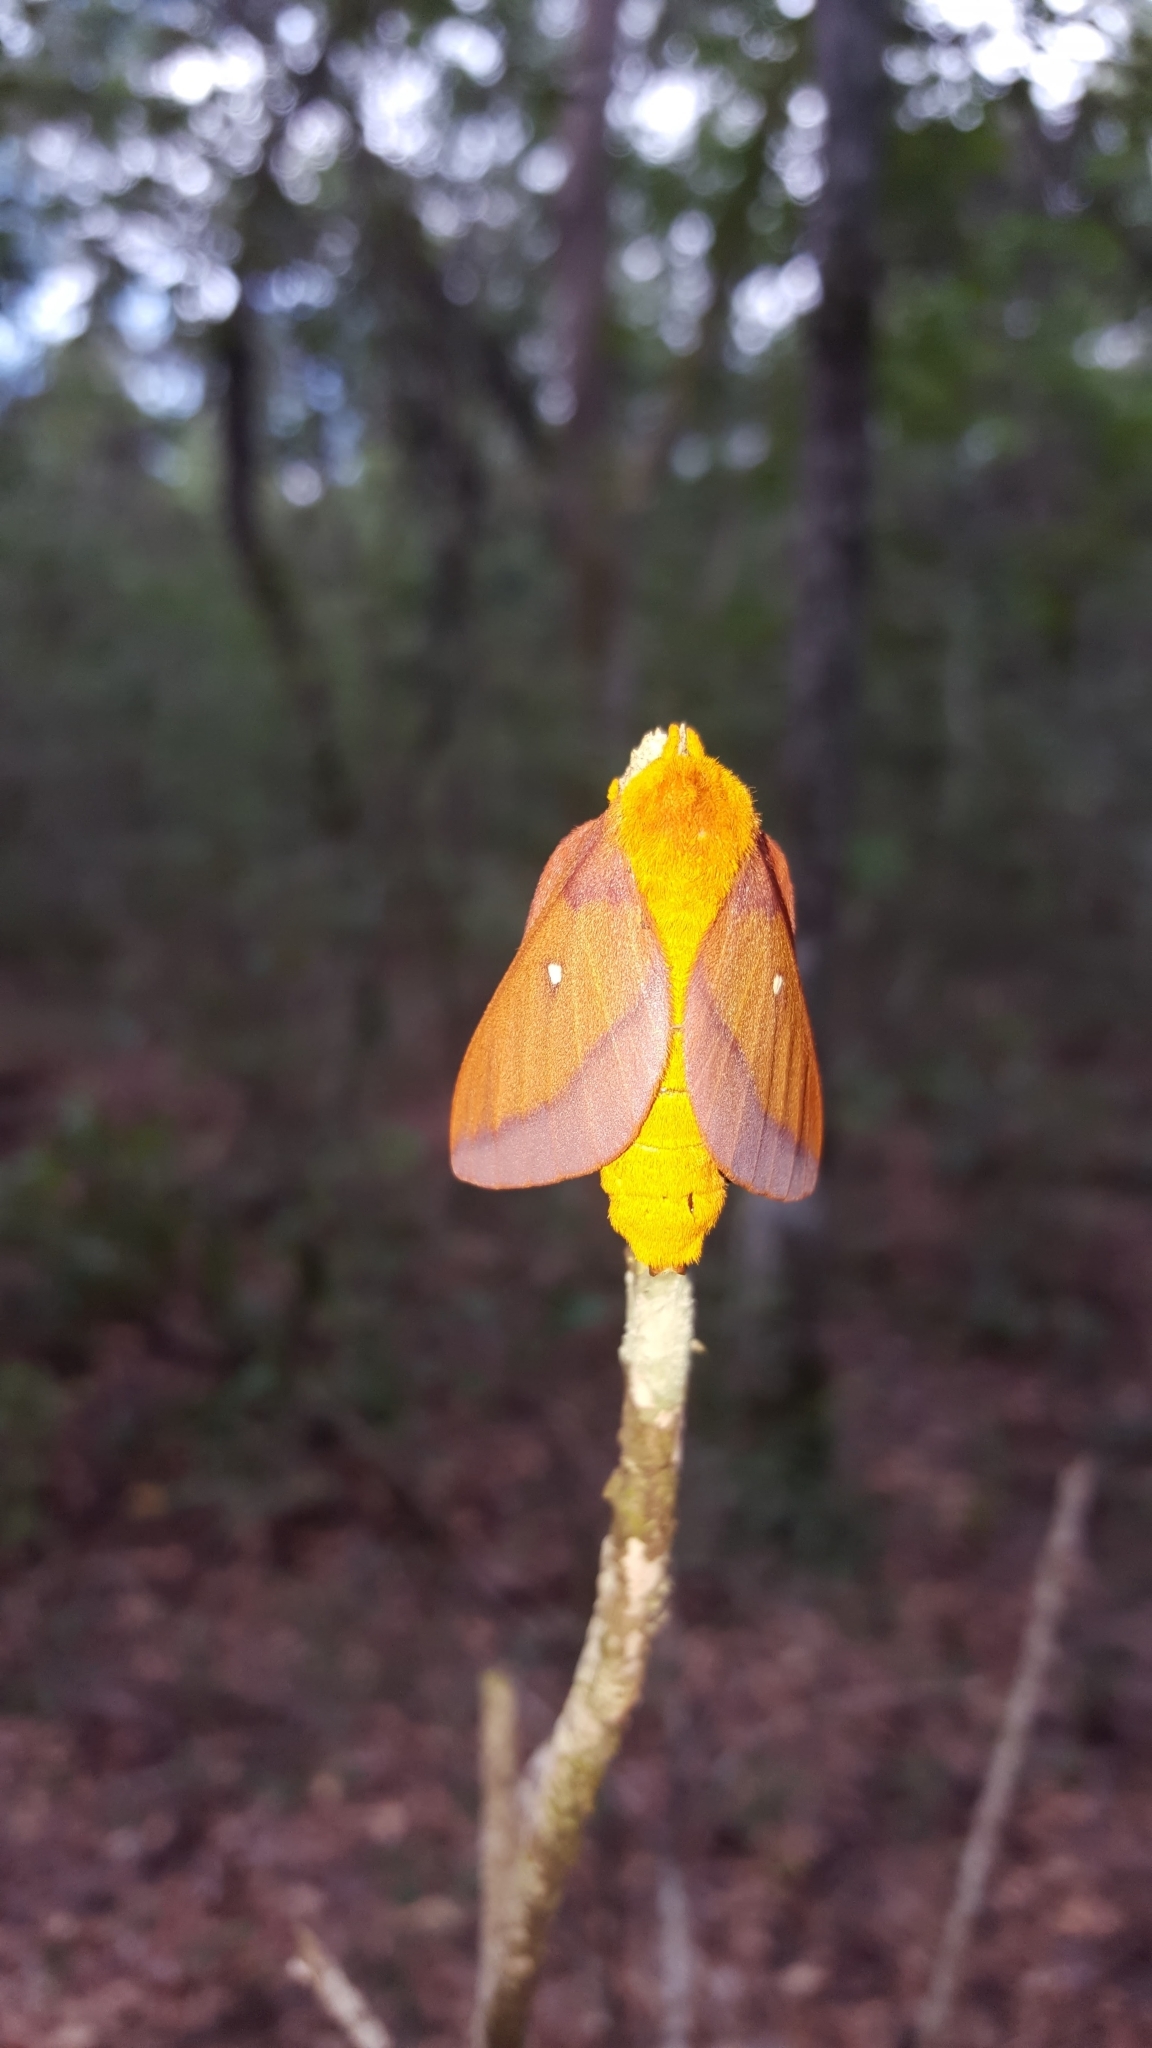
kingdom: Animalia
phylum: Arthropoda
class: Insecta
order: Lepidoptera
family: Saturniidae
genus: Anisota
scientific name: Anisota virginiensis
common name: Pink striped oakworm moth
